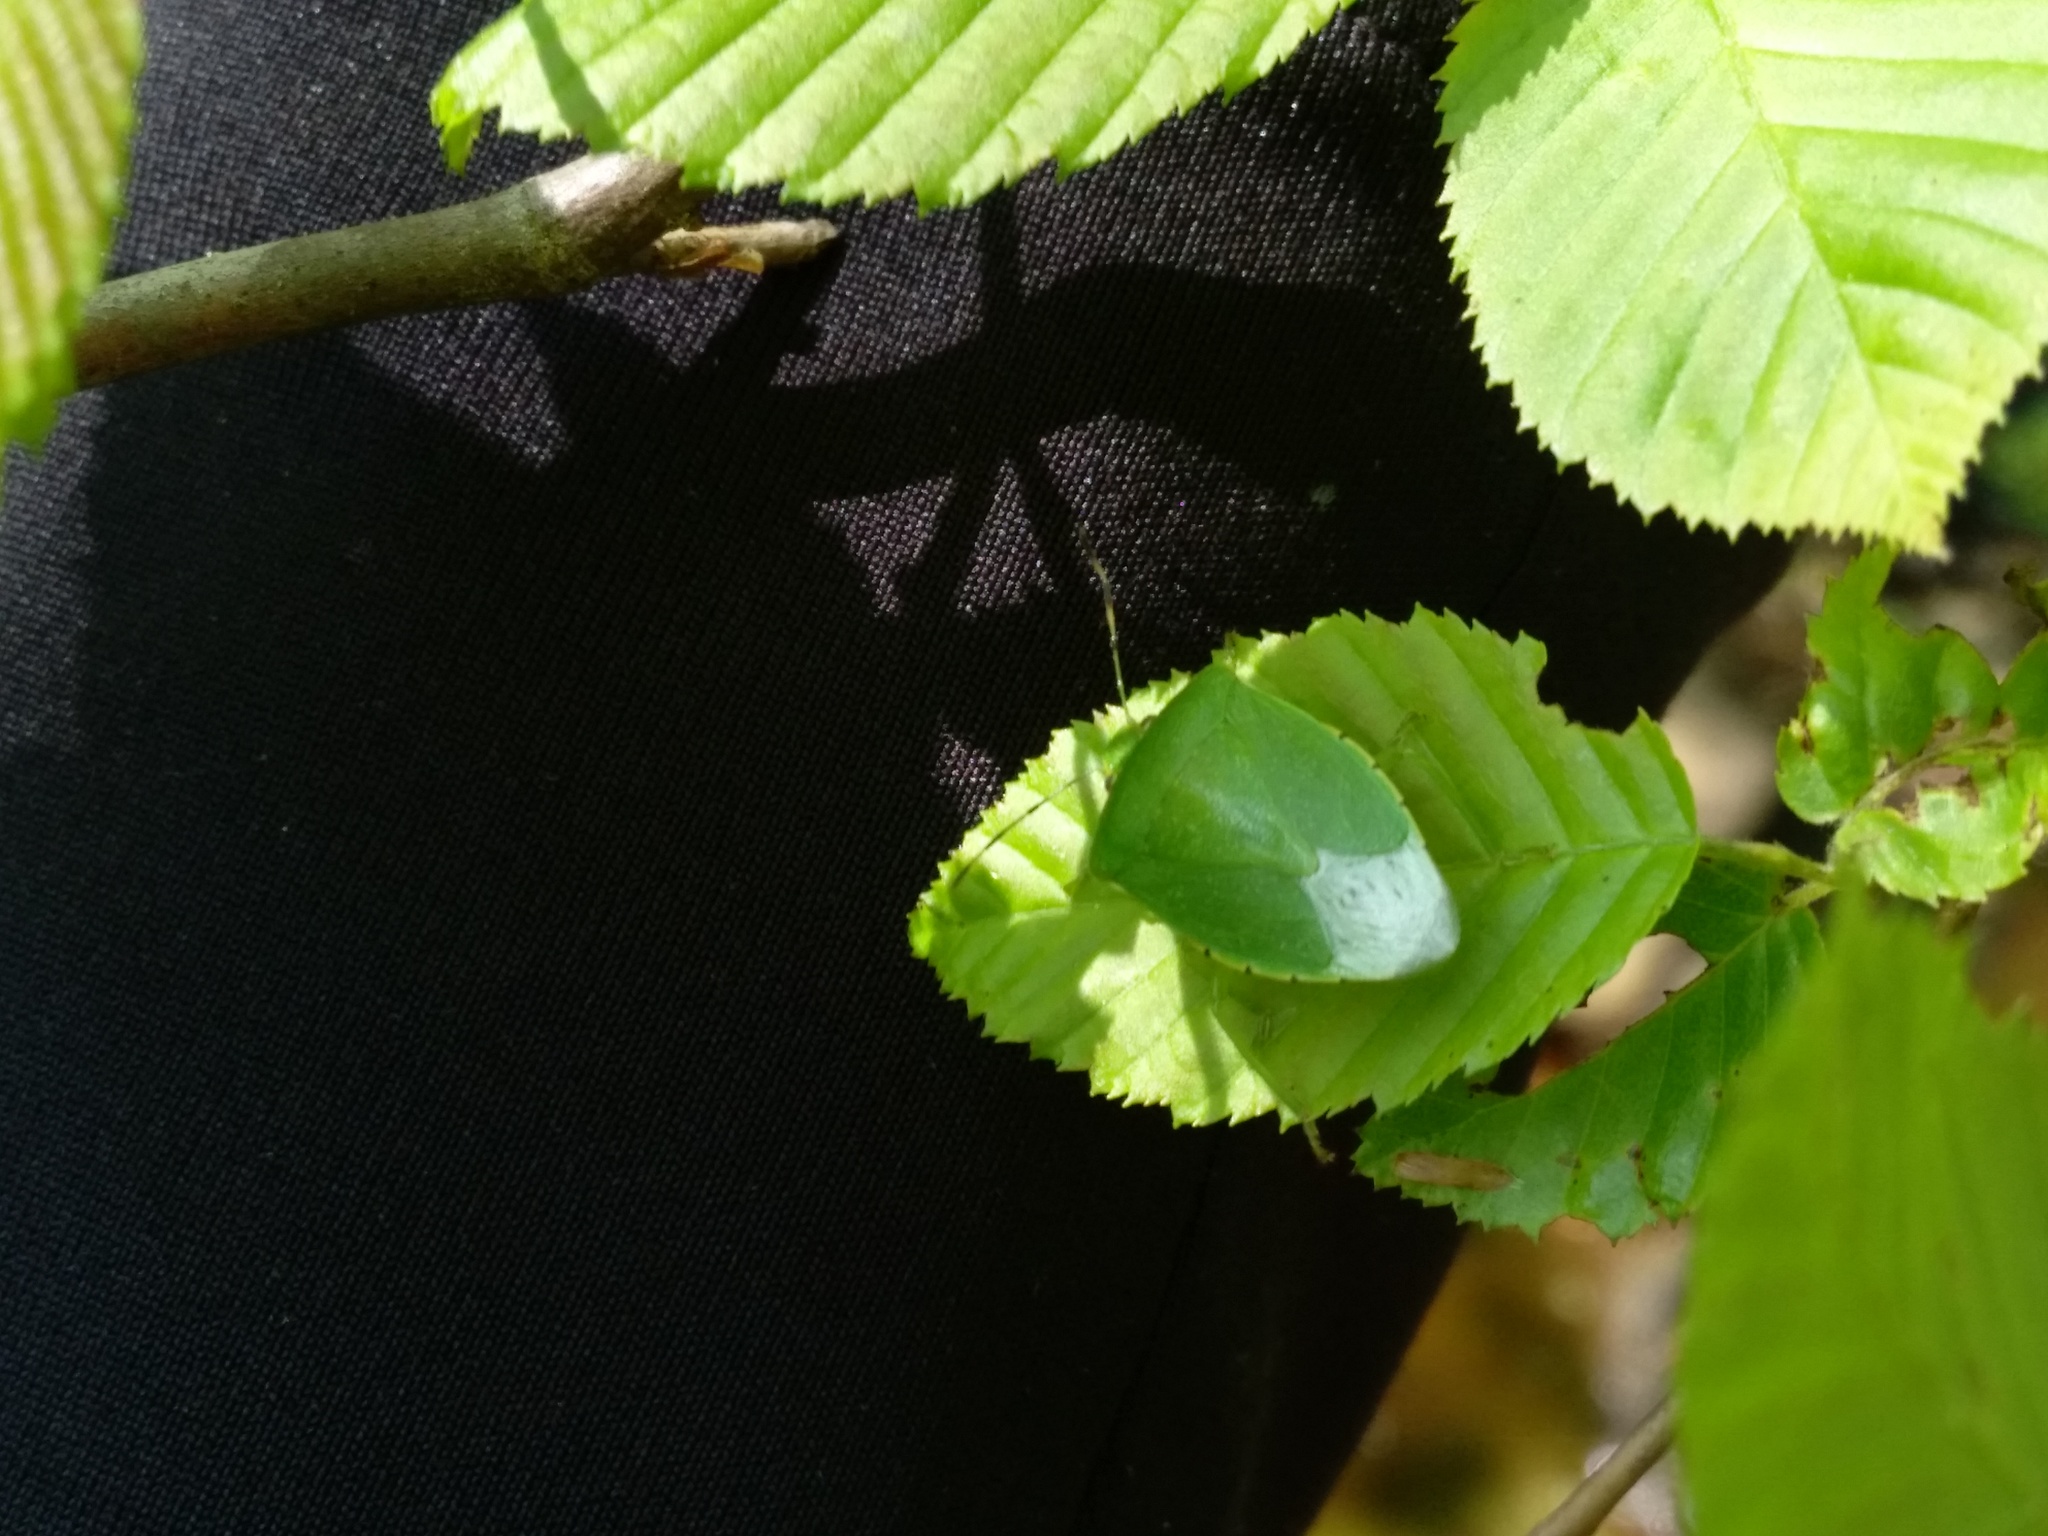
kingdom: Animalia
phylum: Arthropoda
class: Insecta
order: Hemiptera
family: Pentatomidae
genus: Chinavia
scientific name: Chinavia hilaris
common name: Green stink bug
